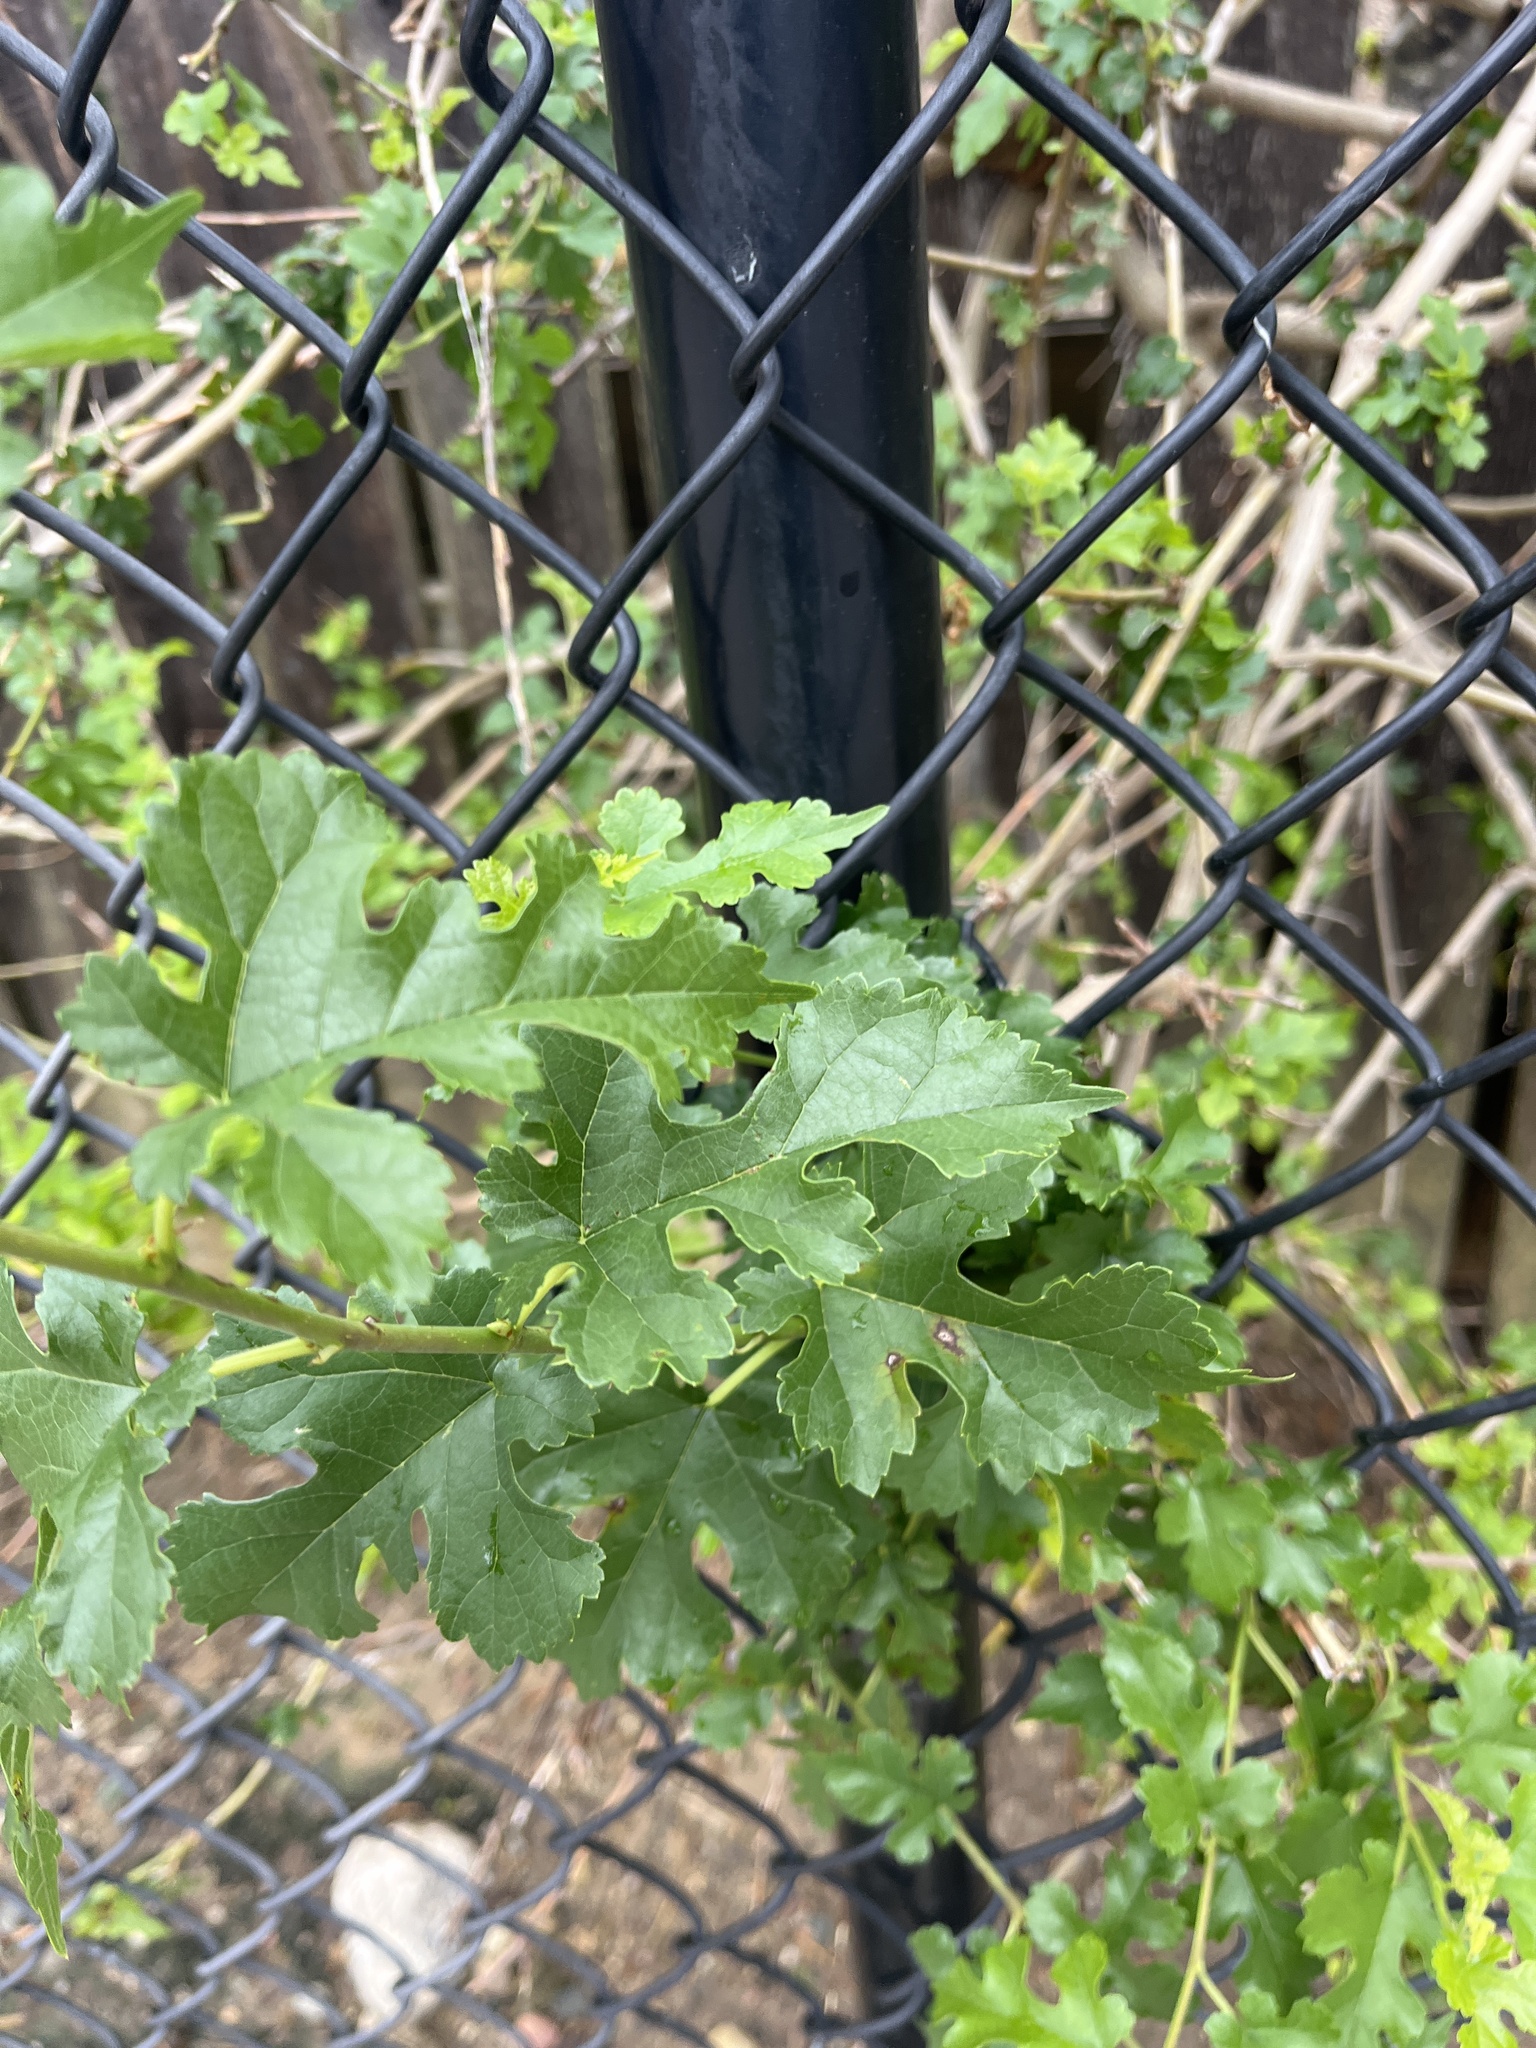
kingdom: Plantae
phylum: Tracheophyta
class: Magnoliopsida
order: Rosales
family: Moraceae
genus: Morus
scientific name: Morus alba
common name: White mulberry
